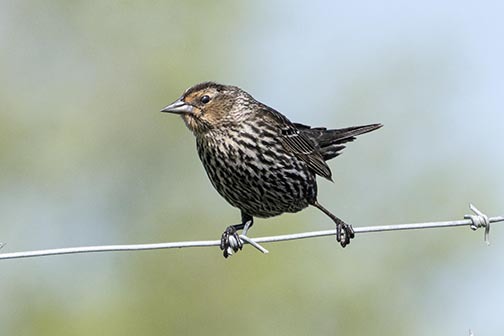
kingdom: Animalia
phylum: Chordata
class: Aves
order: Passeriformes
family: Icteridae
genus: Agelaius
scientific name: Agelaius phoeniceus
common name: Red-winged blackbird
